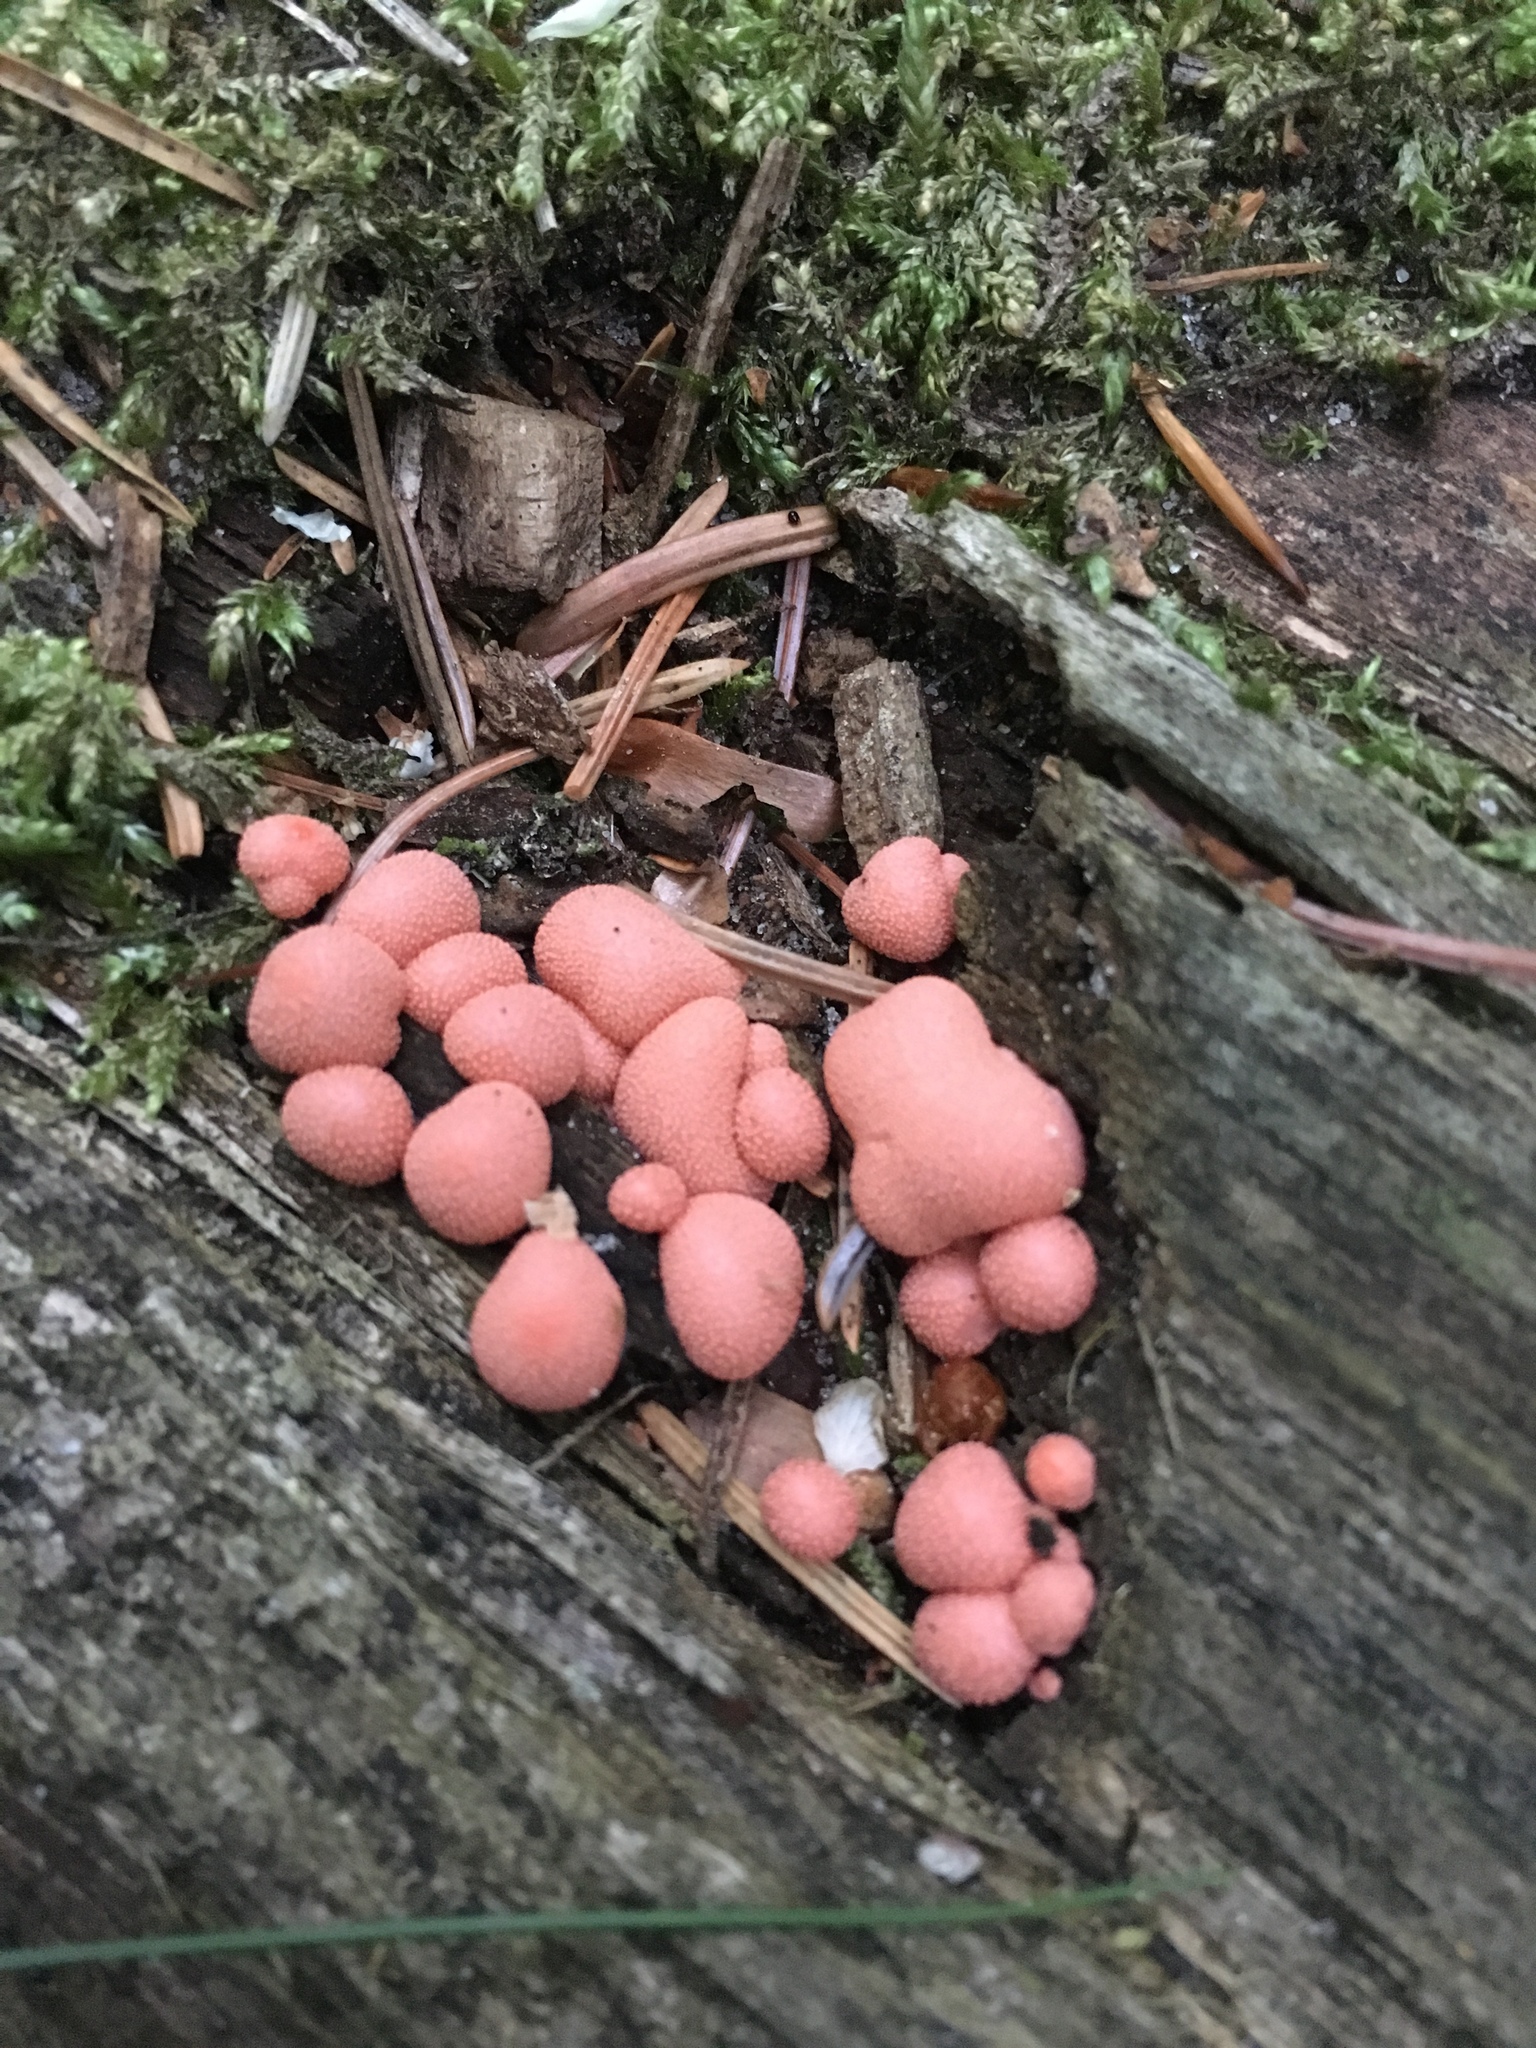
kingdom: Protozoa
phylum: Mycetozoa
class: Myxomycetes
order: Cribrariales
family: Tubiferaceae
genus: Lycogala
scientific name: Lycogala epidendrum
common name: Wolf's milk
